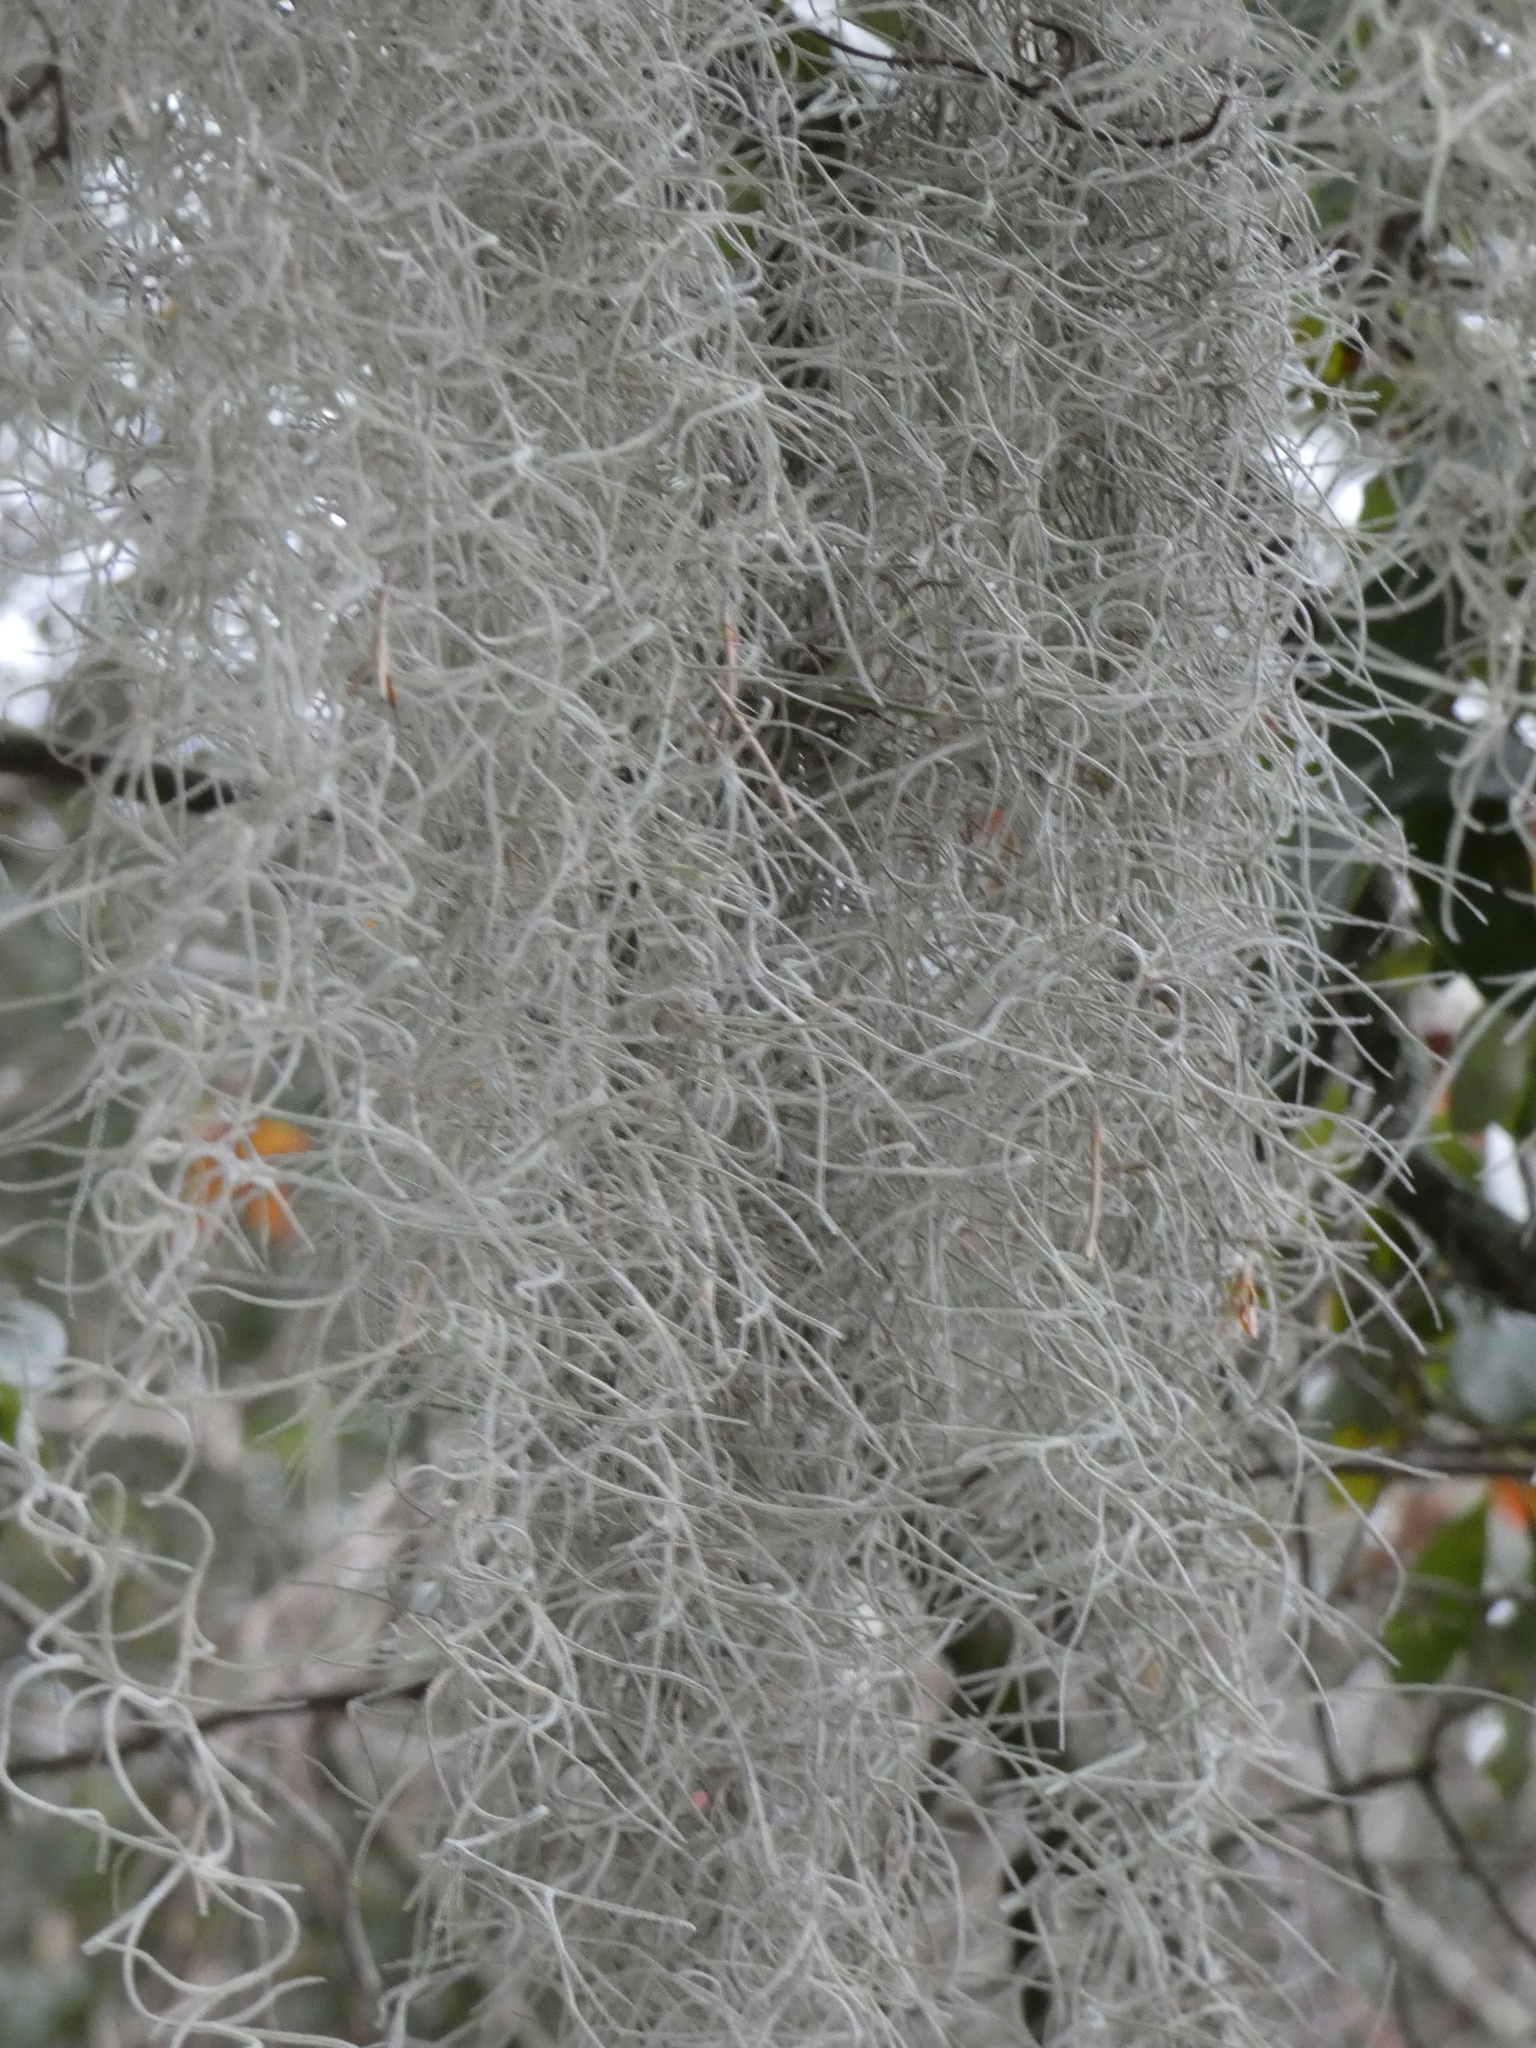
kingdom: Plantae
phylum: Tracheophyta
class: Liliopsida
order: Poales
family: Bromeliaceae
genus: Tillandsia
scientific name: Tillandsia usneoides
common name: Spanish moss
